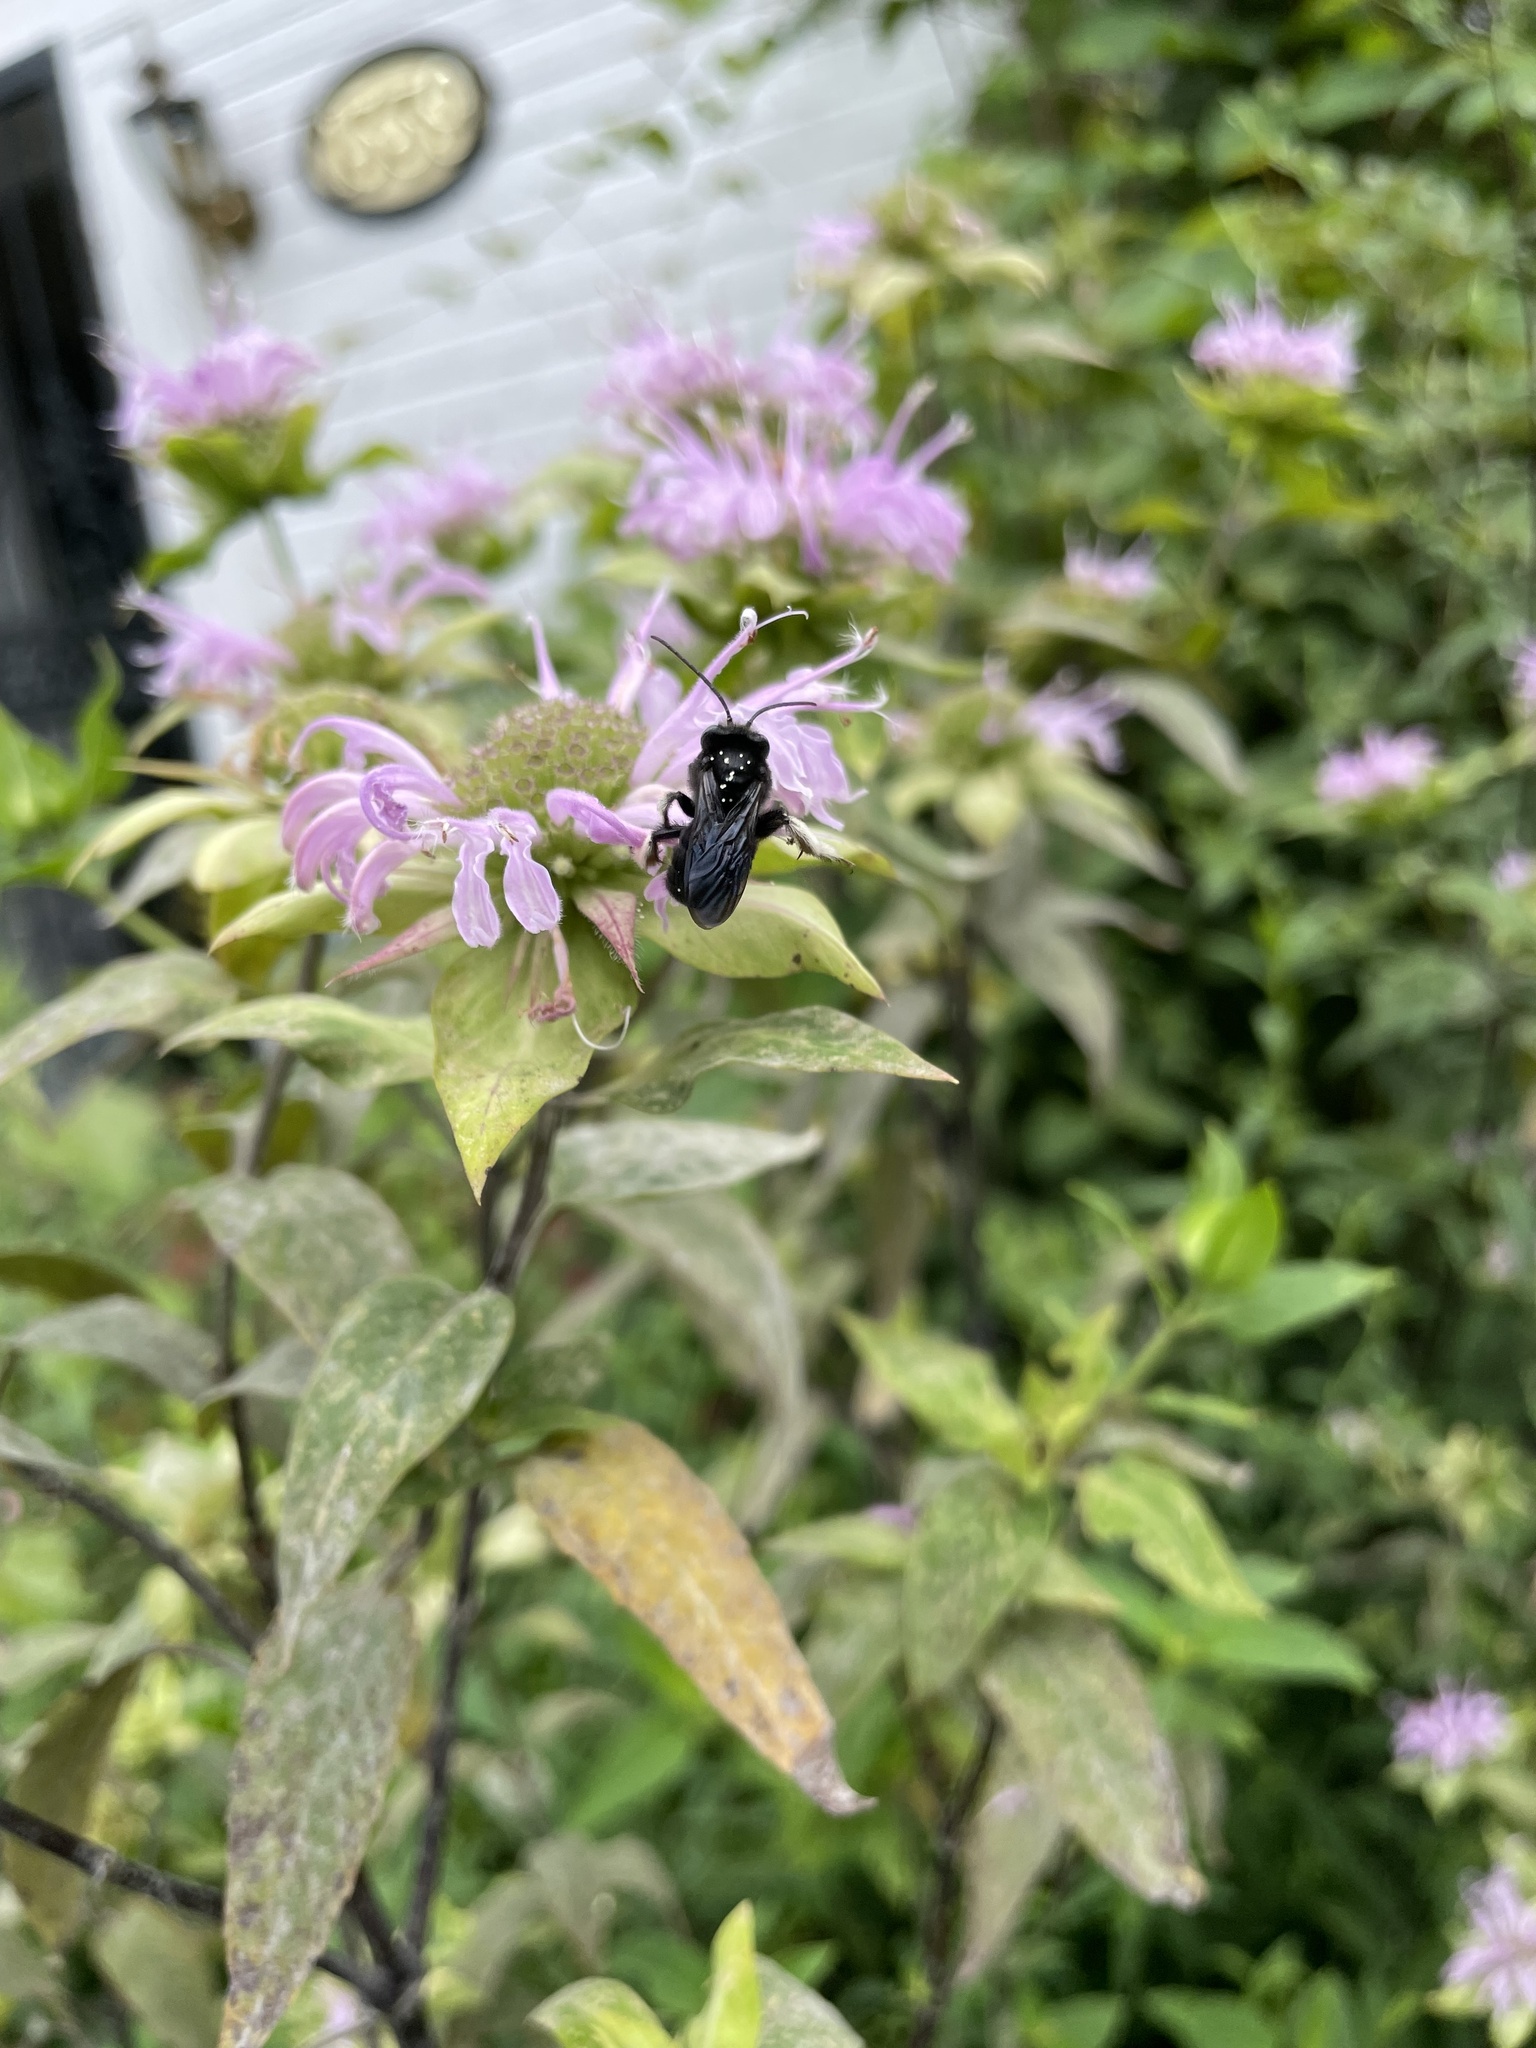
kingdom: Animalia
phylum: Arthropoda
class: Insecta
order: Hymenoptera
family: Apidae
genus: Melissodes
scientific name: Melissodes bimaculatus
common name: Two-spotted long-horned bee
